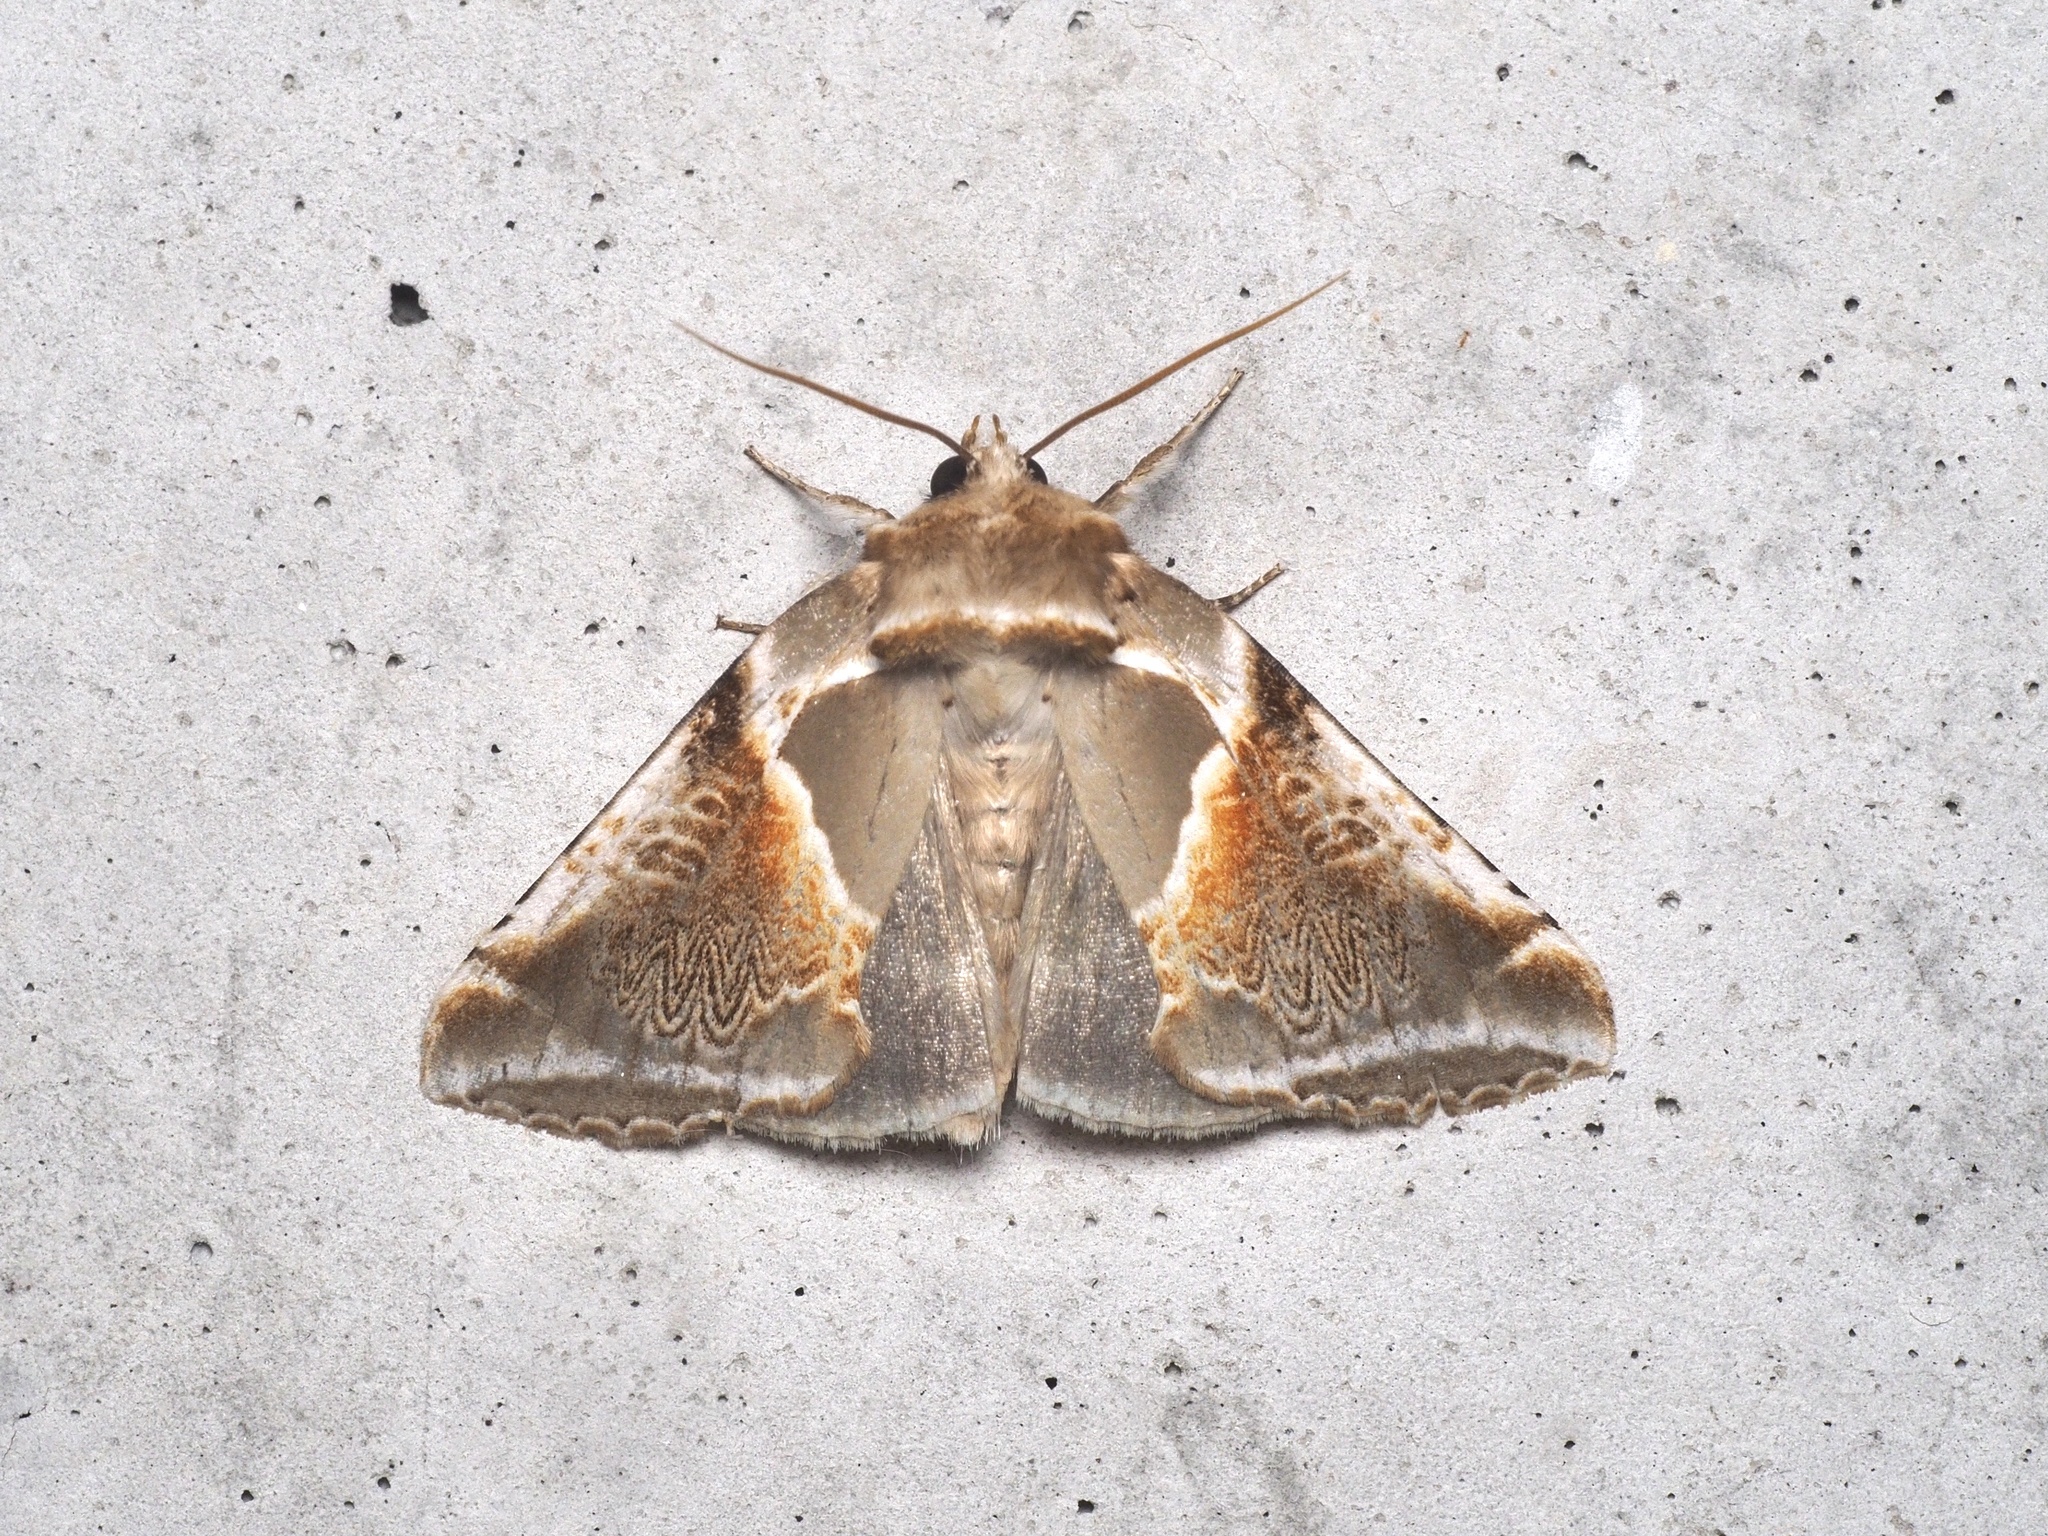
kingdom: Animalia
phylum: Arthropoda
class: Insecta
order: Lepidoptera
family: Drepanidae
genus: Habrosyne
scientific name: Habrosyne pyritoides
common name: Buff arches
